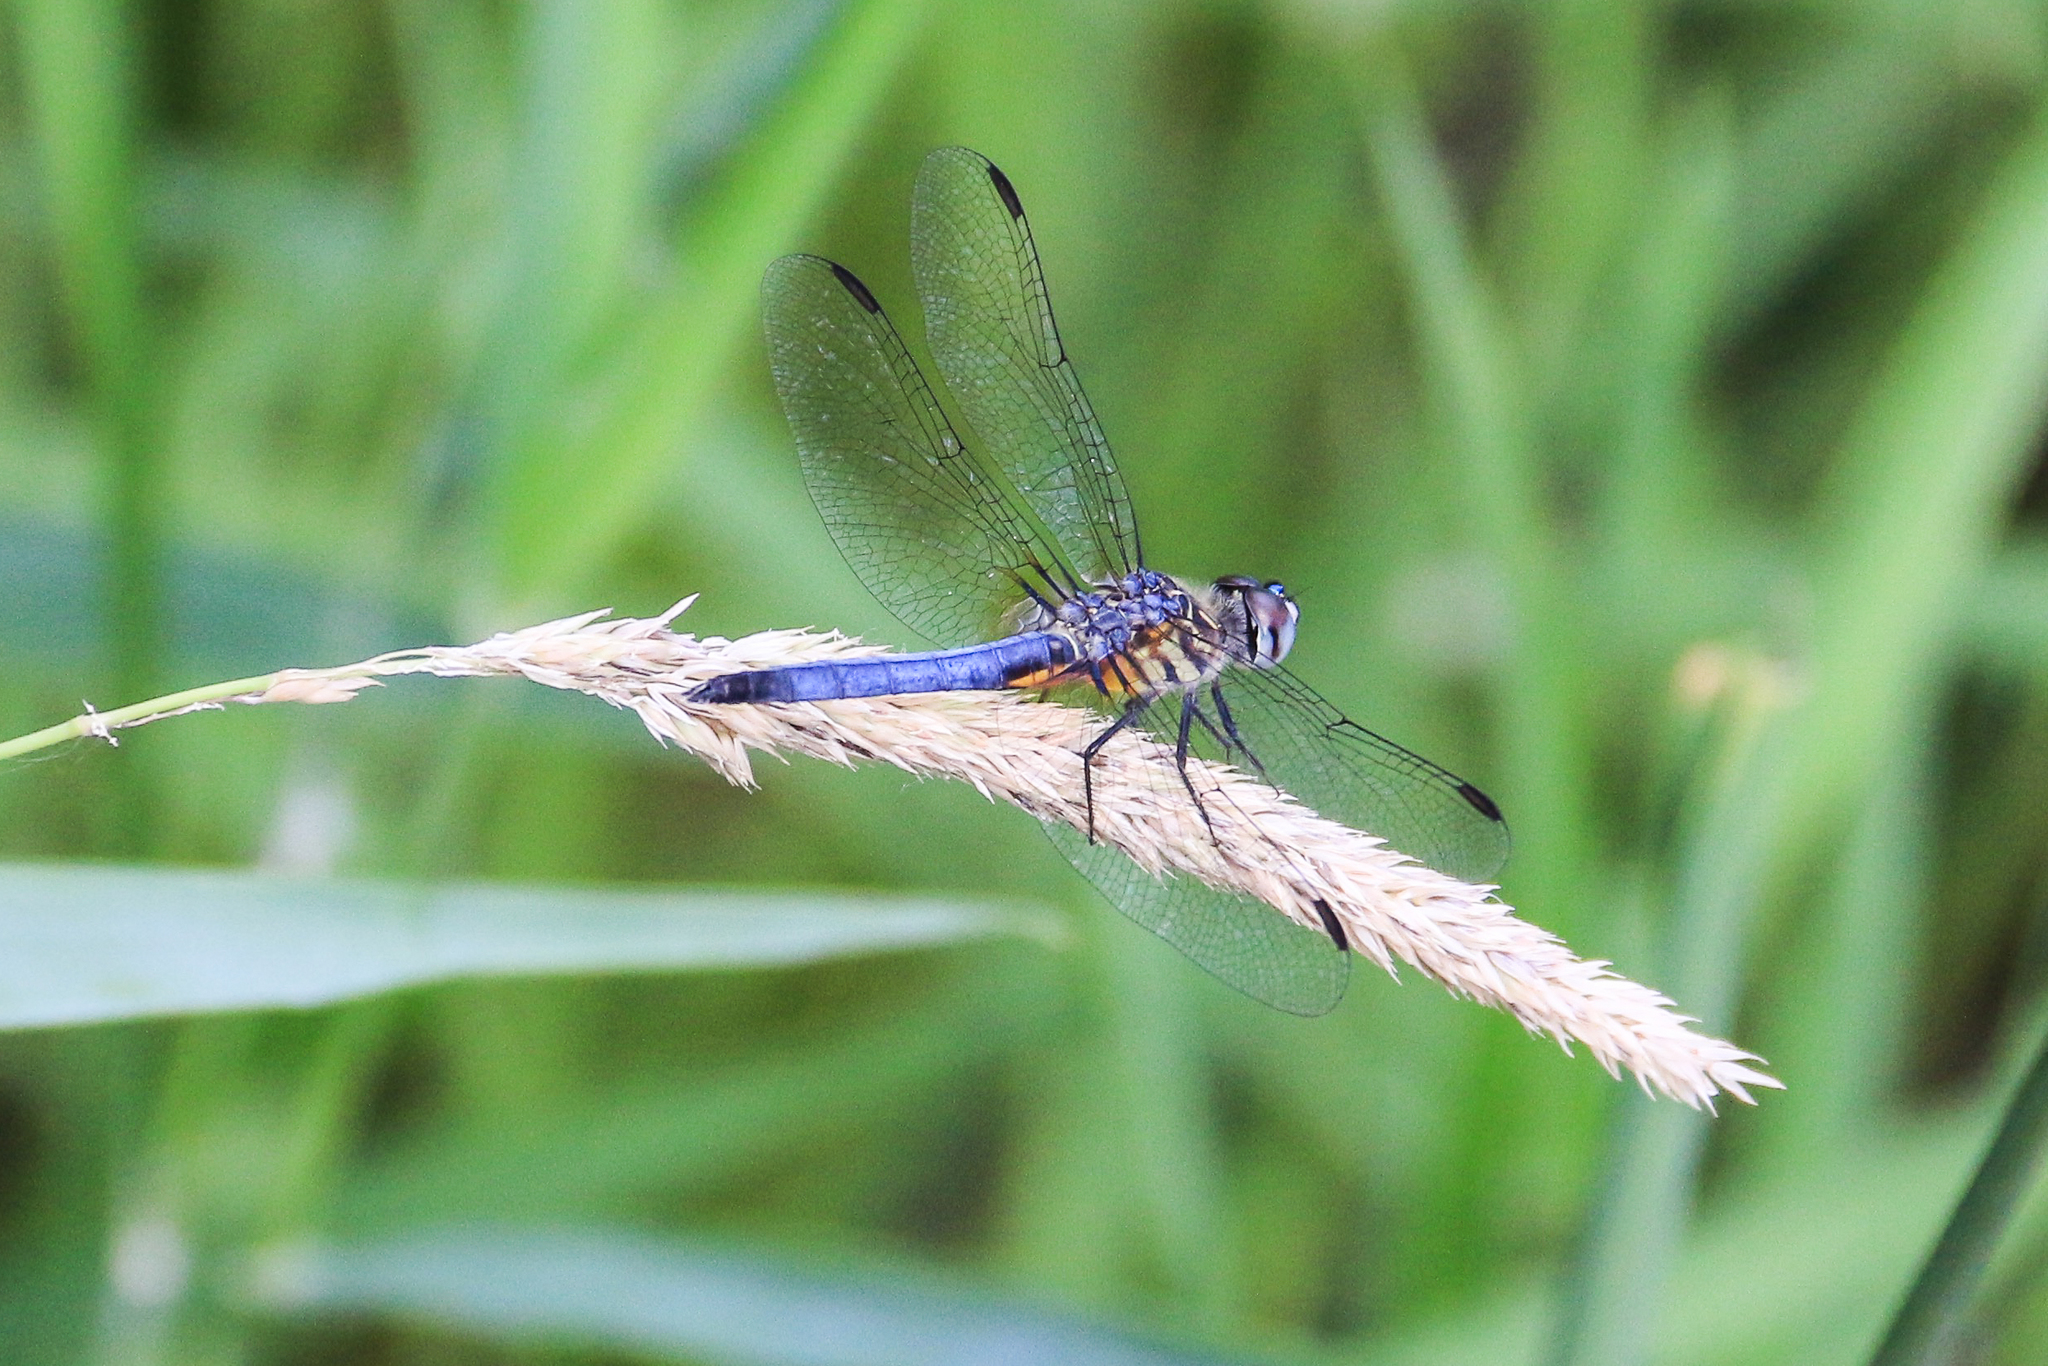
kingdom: Animalia
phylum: Arthropoda
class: Insecta
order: Odonata
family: Libellulidae
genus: Pachydiplax
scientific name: Pachydiplax longipennis
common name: Blue dasher
